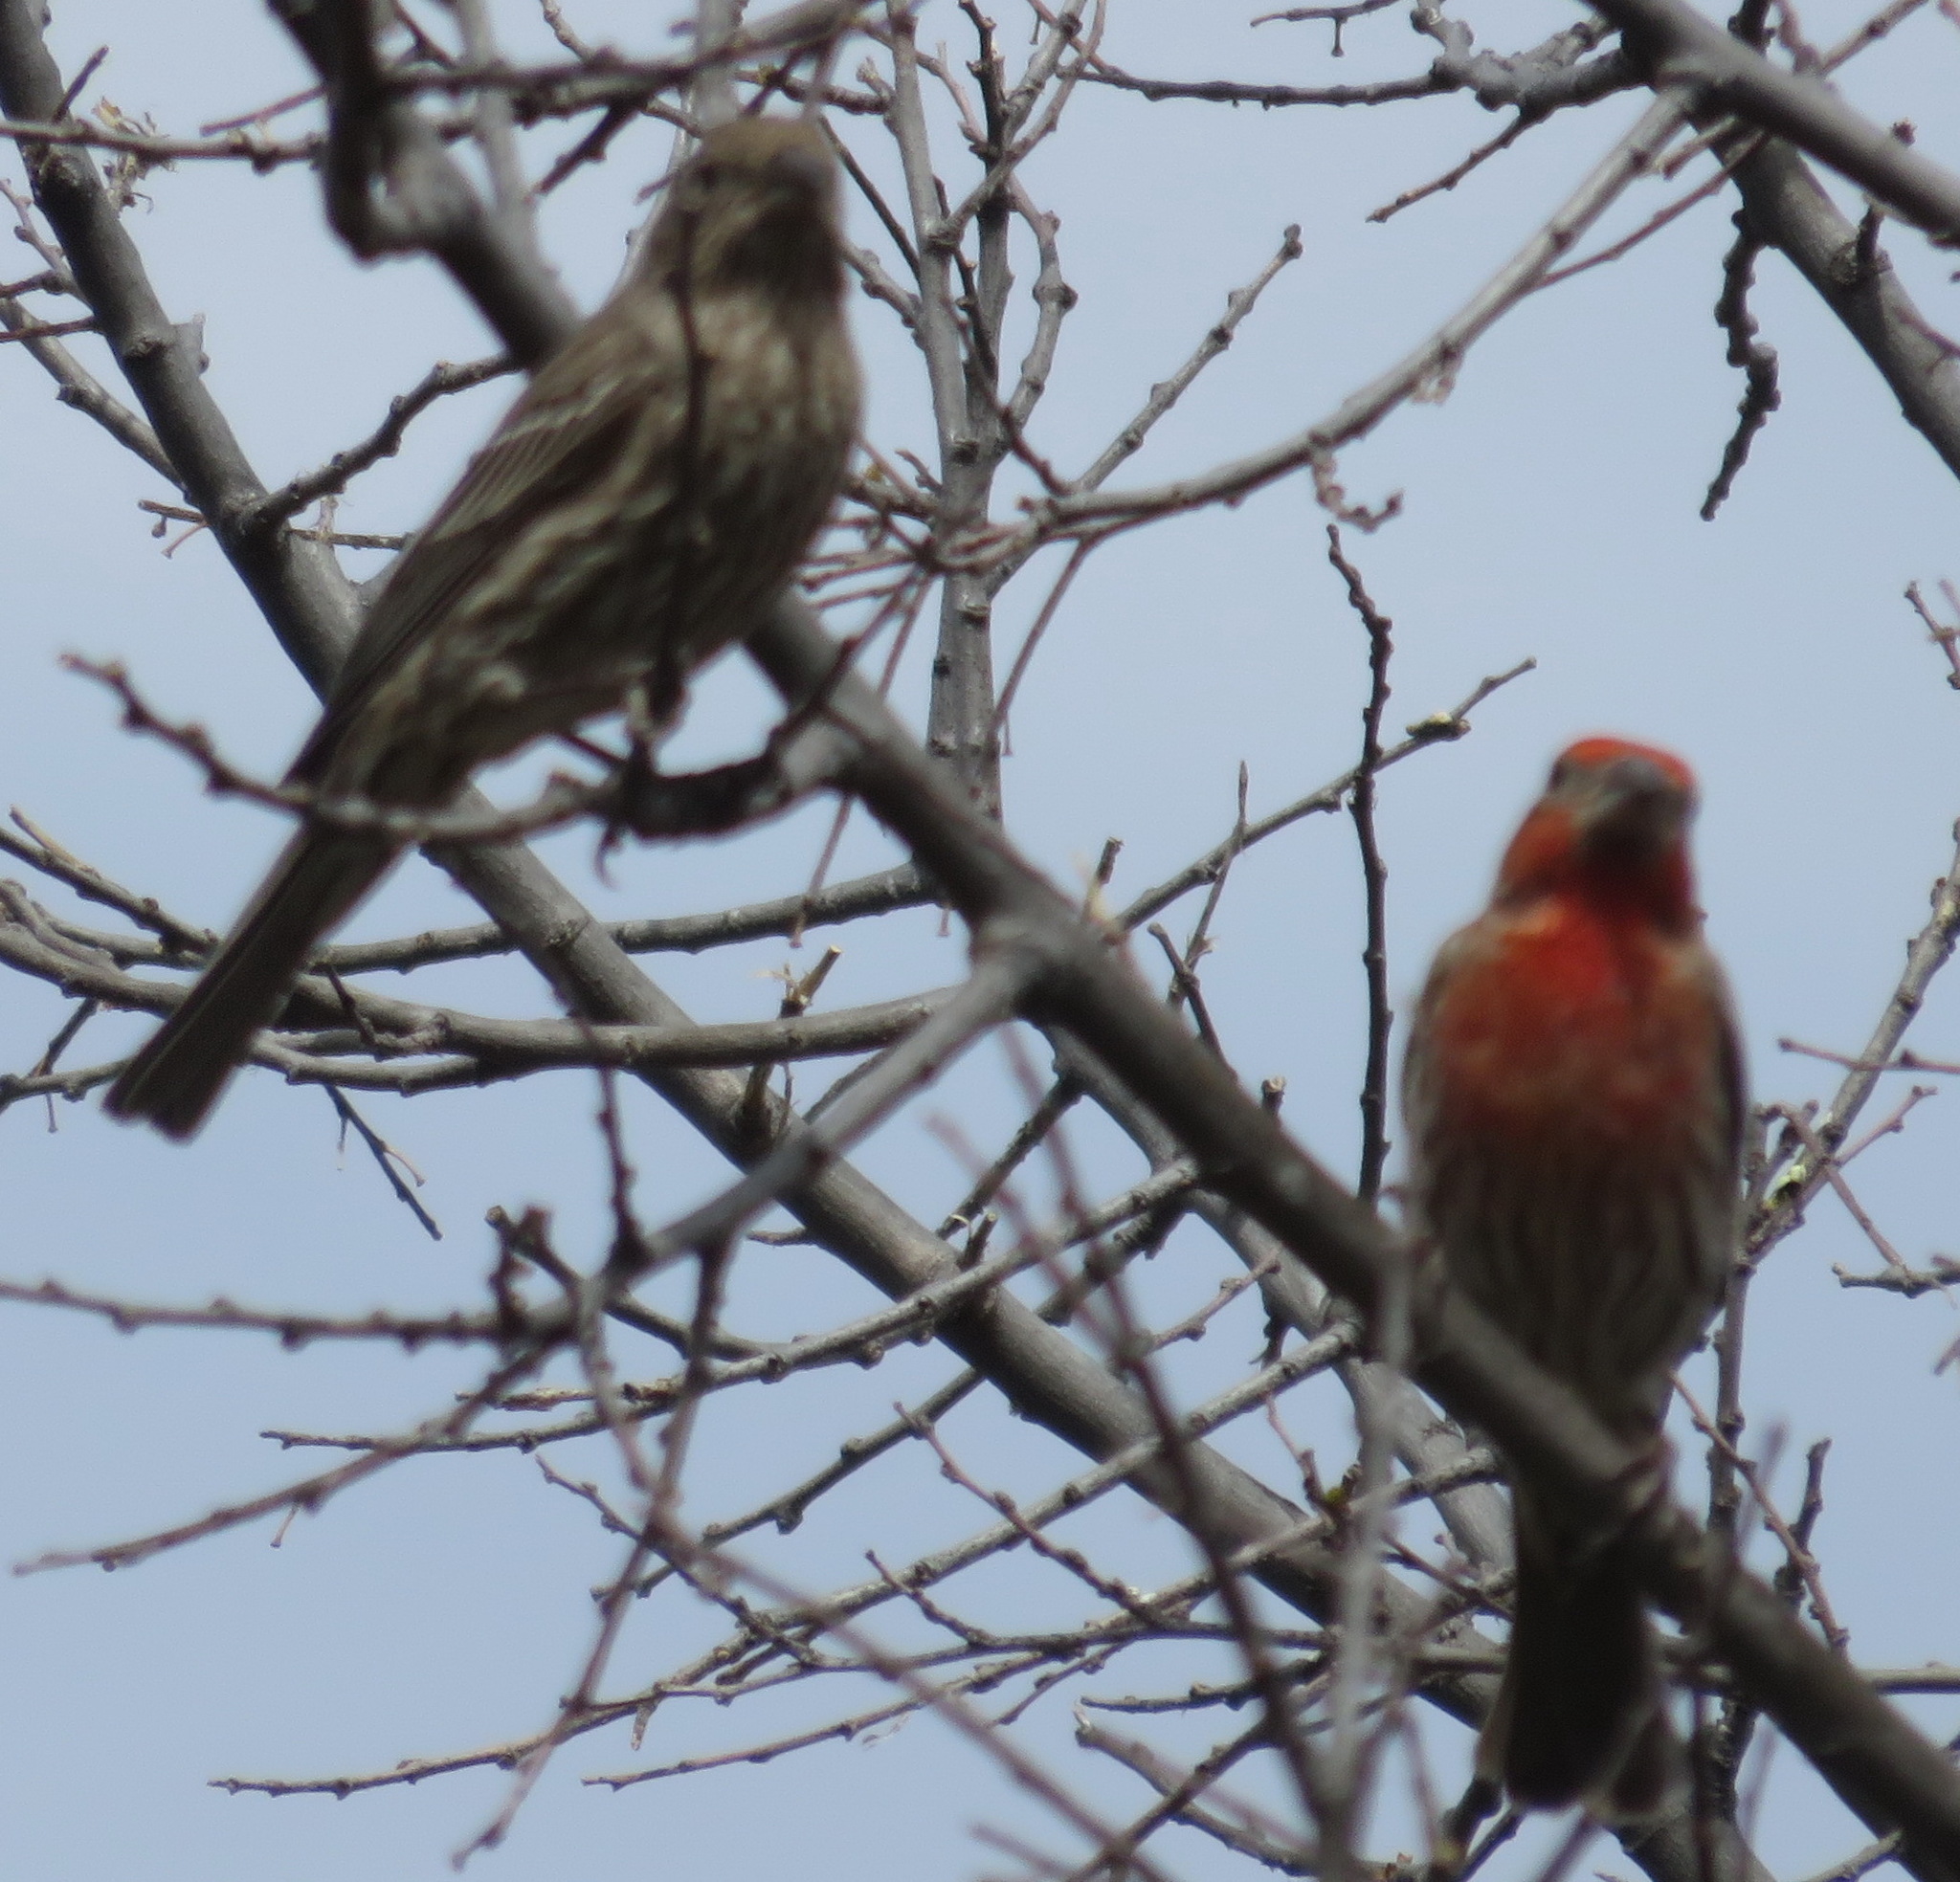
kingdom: Animalia
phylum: Chordata
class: Aves
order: Passeriformes
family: Fringillidae
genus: Haemorhous
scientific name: Haemorhous mexicanus
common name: House finch
